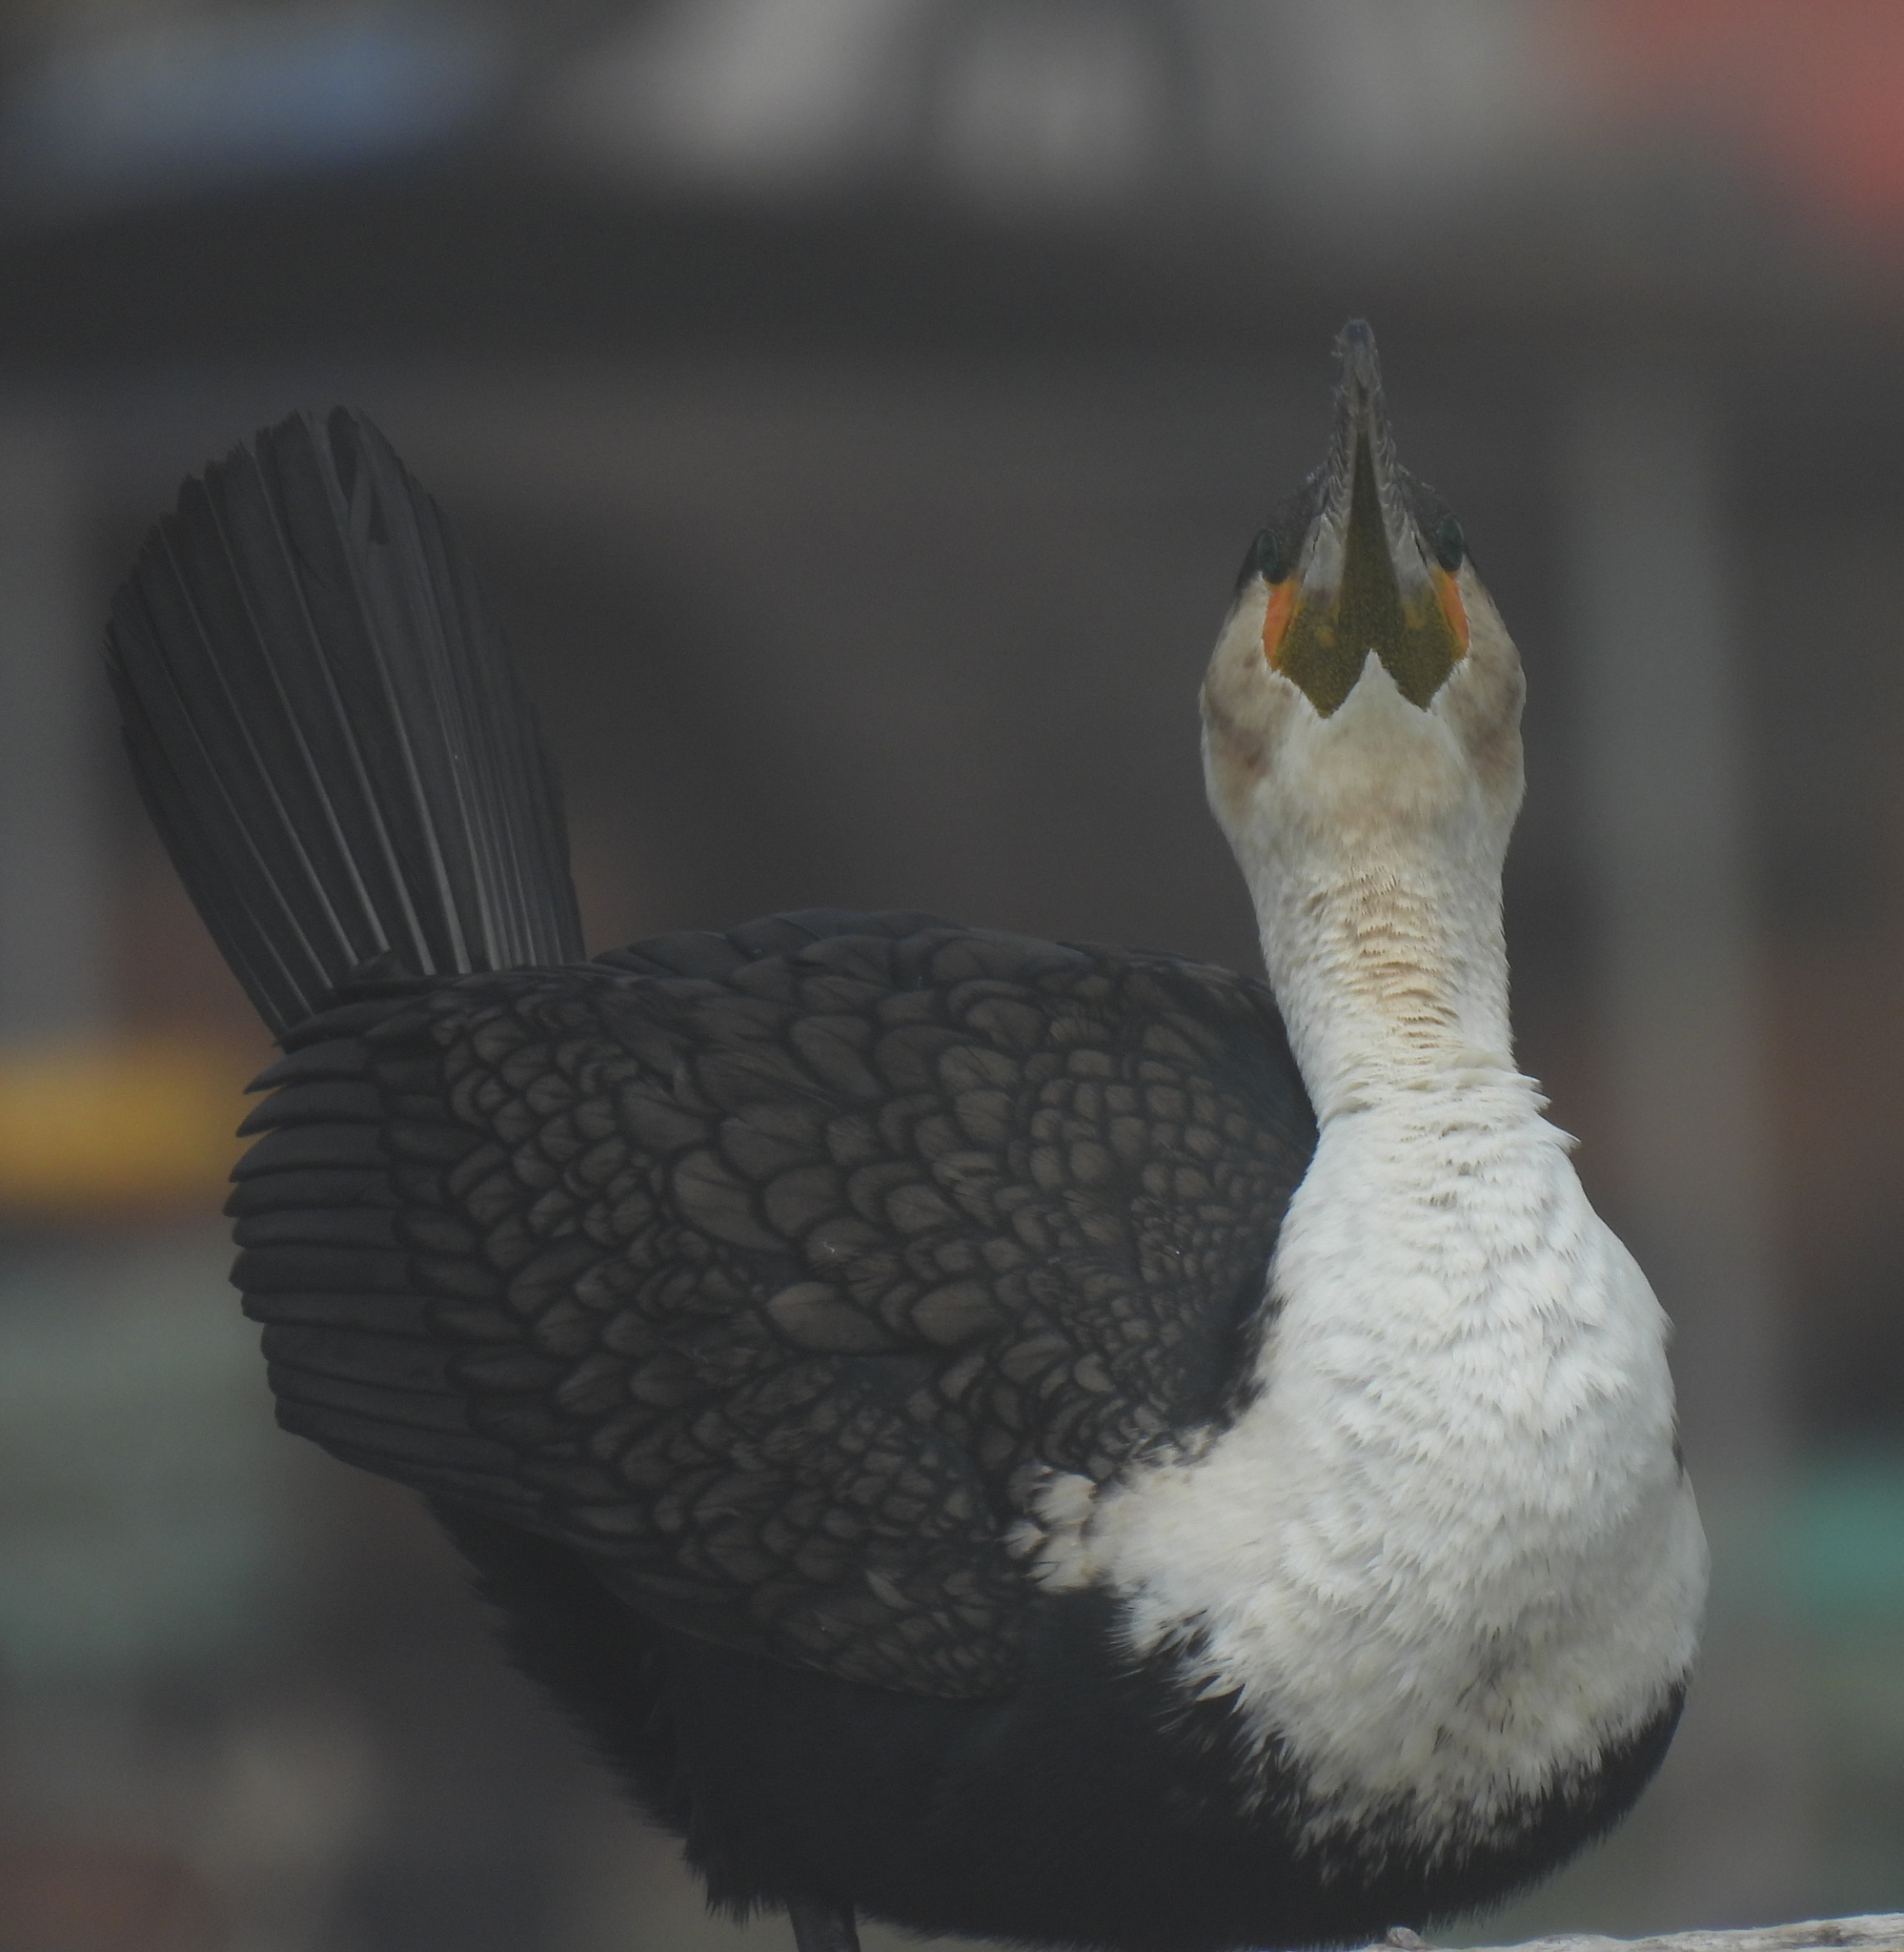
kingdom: Animalia
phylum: Chordata
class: Aves
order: Suliformes
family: Phalacrocoracidae
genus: Phalacrocorax
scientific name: Phalacrocorax carbo
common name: Great cormorant
